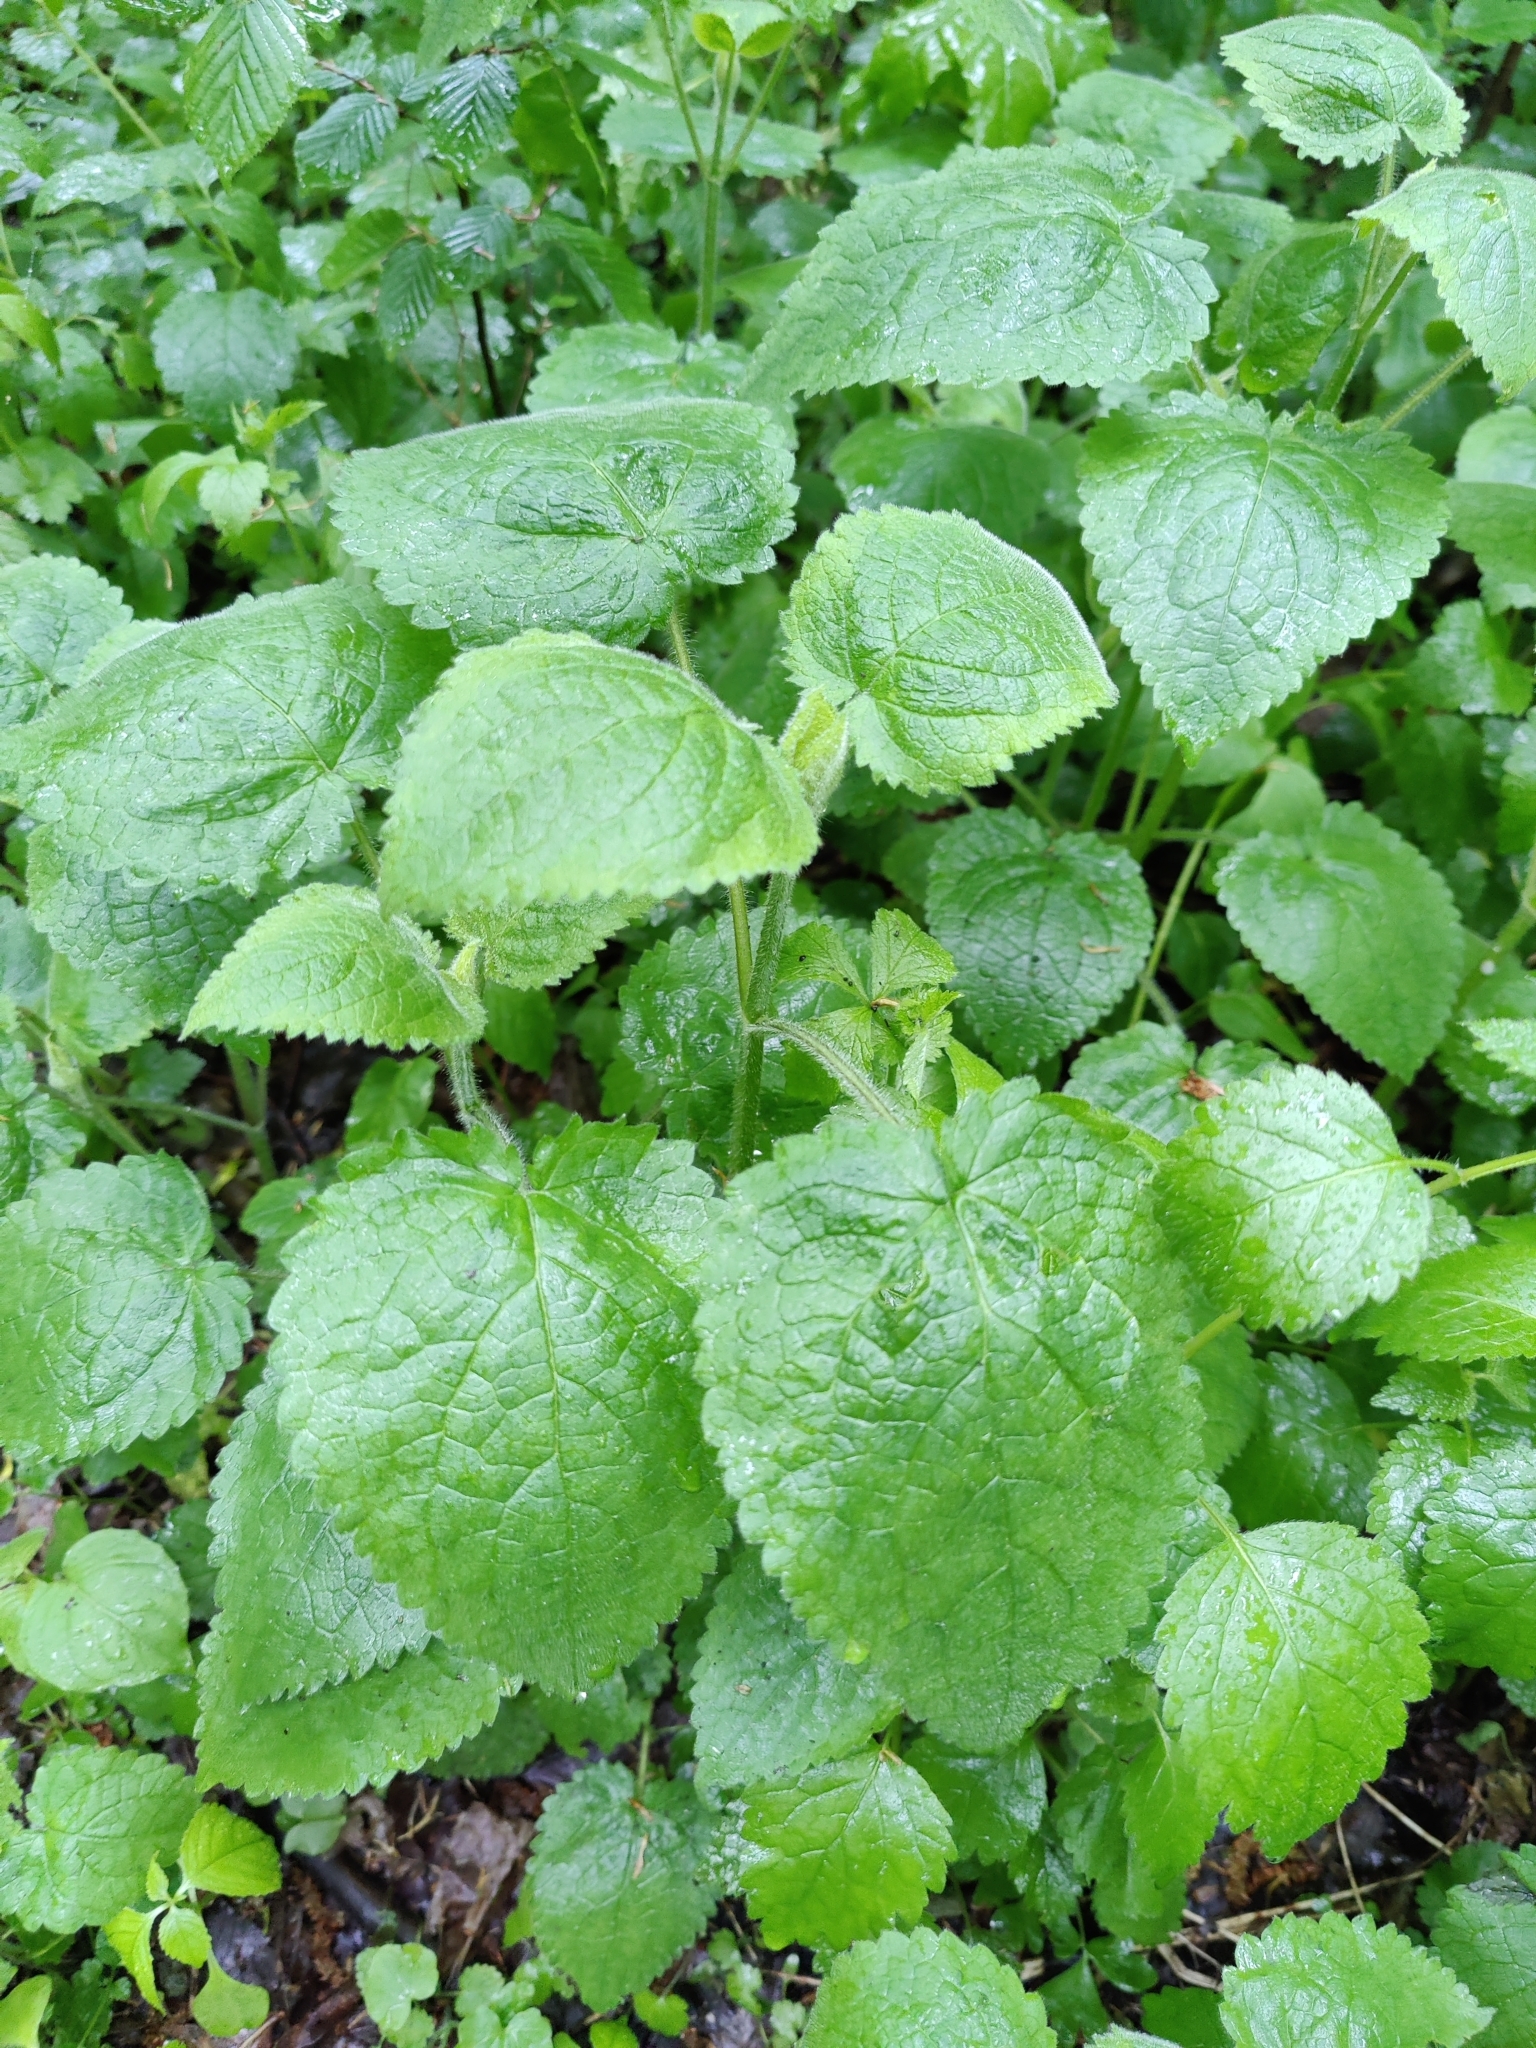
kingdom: Plantae
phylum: Tracheophyta
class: Magnoliopsida
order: Lamiales
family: Lamiaceae
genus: Stachys
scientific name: Stachys sylvatica
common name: Hedge woundwort
